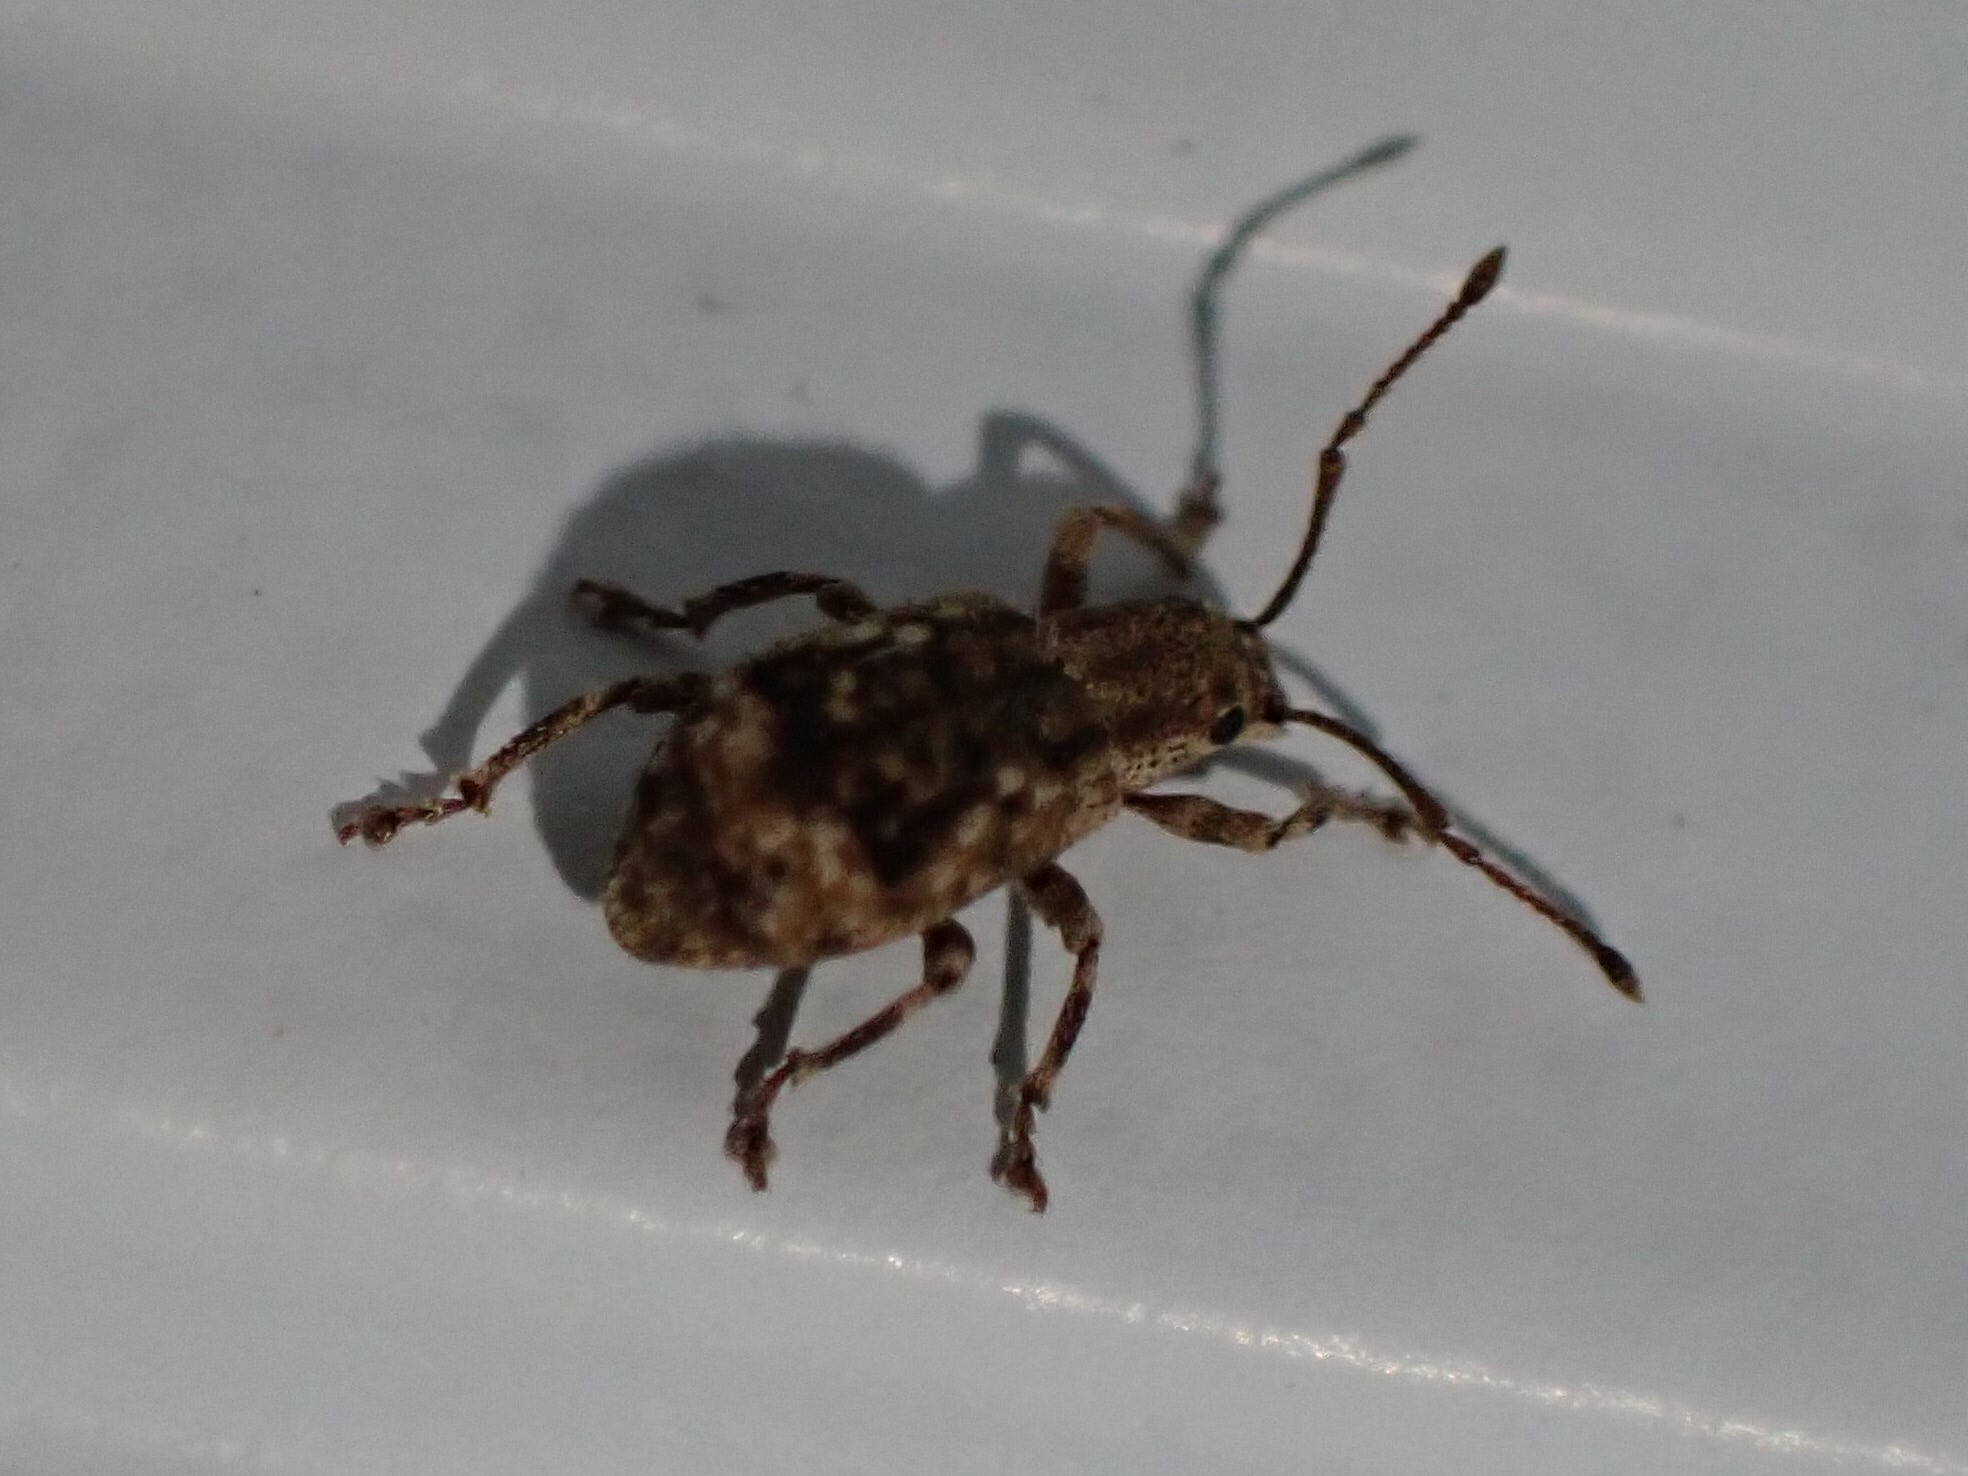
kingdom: Animalia
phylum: Arthropoda
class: Insecta
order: Coleoptera
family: Curculionidae
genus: Pseudoedophrys
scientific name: Pseudoedophrys hilleri
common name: Weevil
